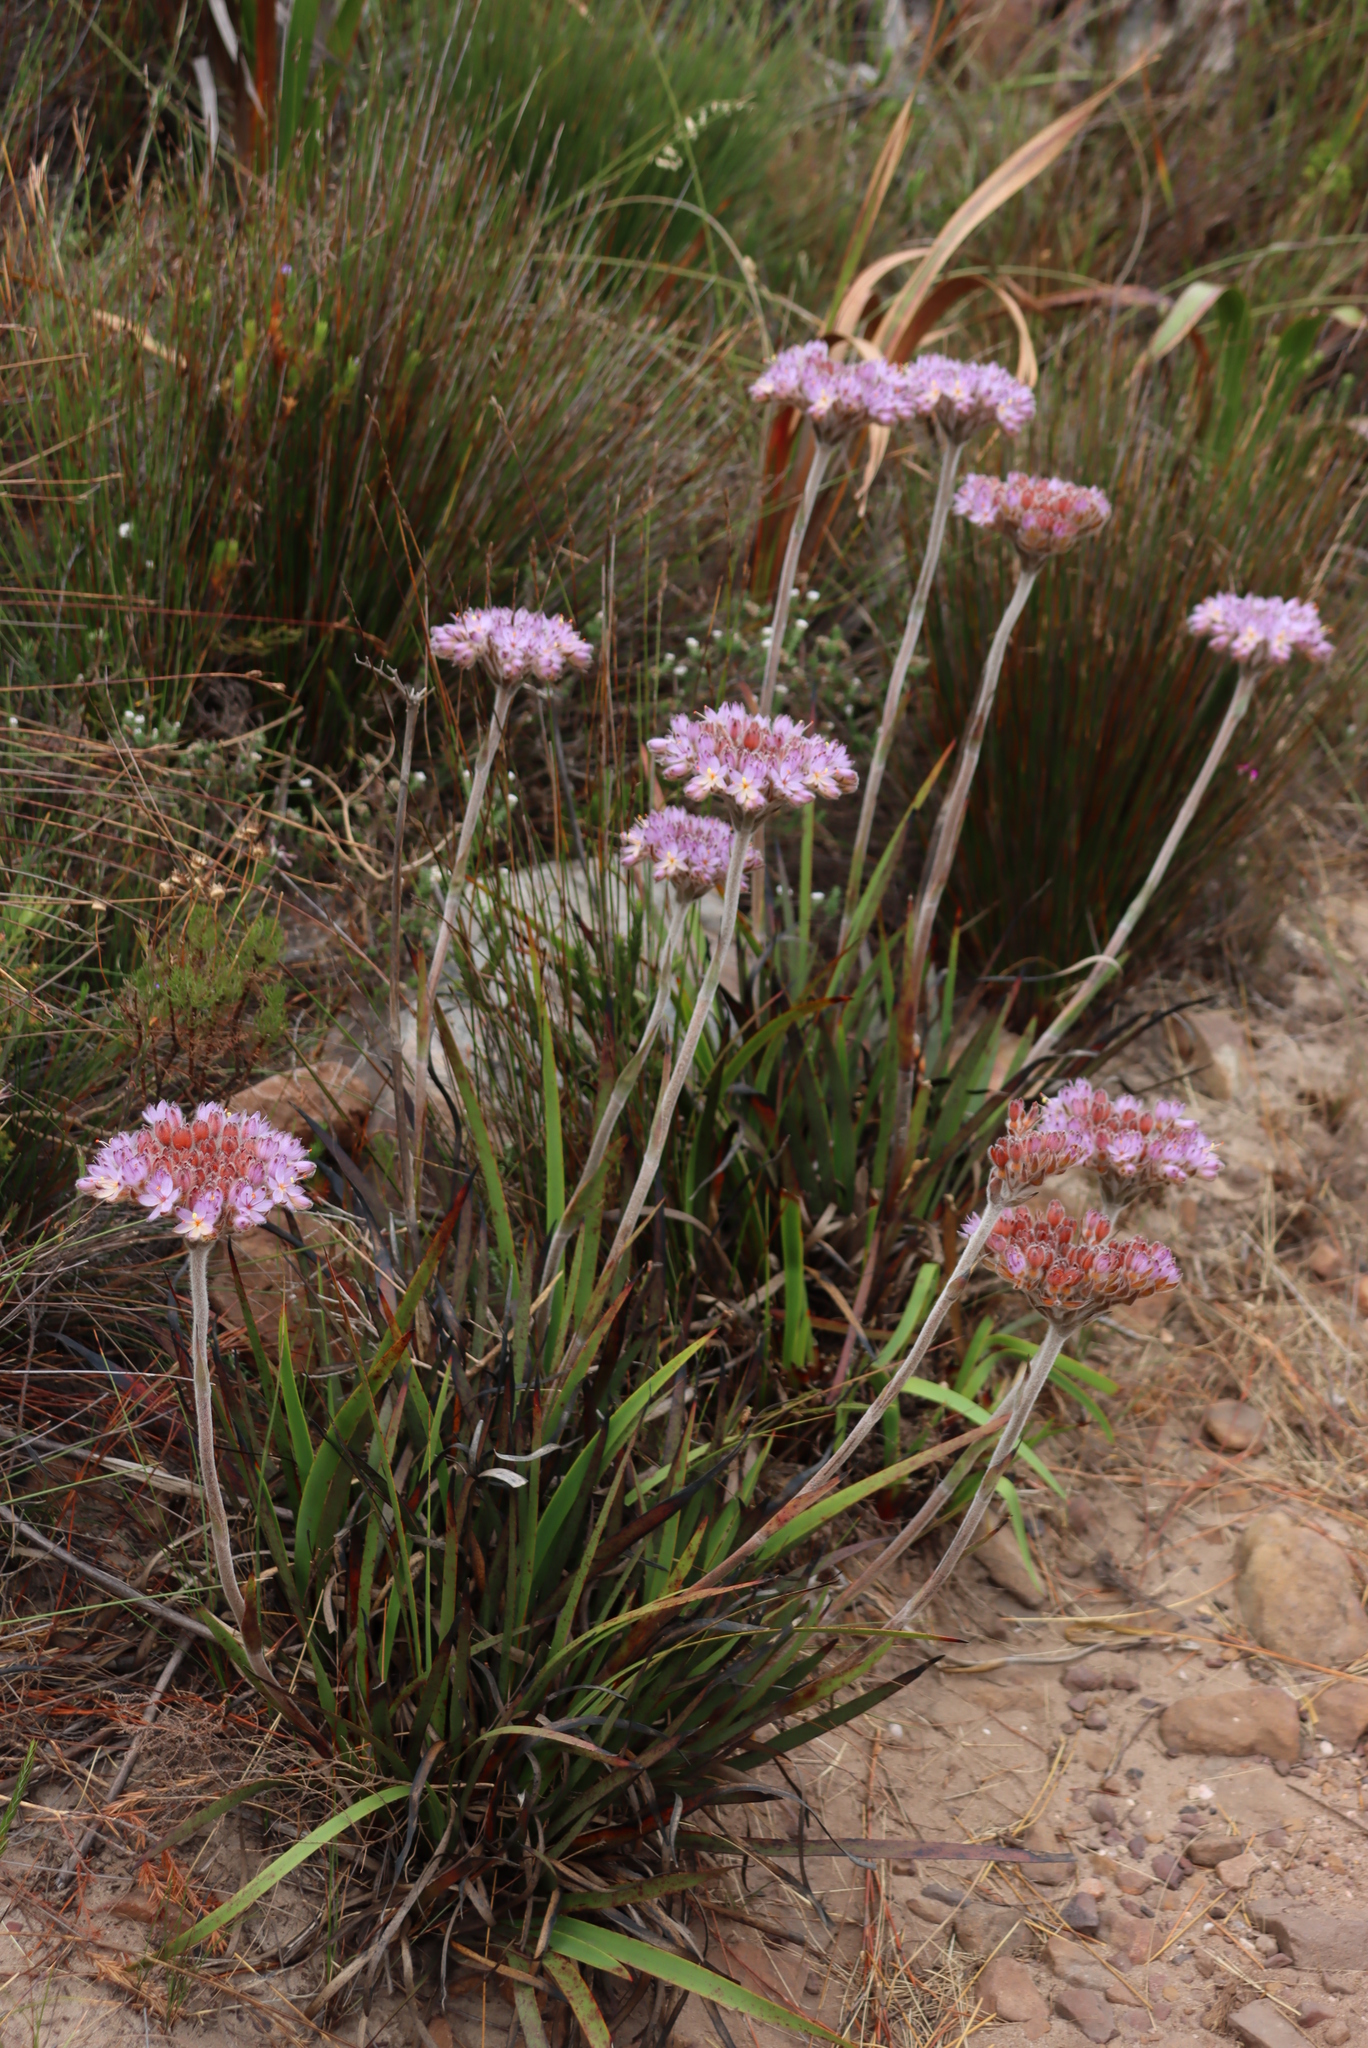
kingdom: Plantae
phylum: Tracheophyta
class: Liliopsida
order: Commelinales
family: Haemodoraceae
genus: Dilatris
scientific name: Dilatris corymbosa
